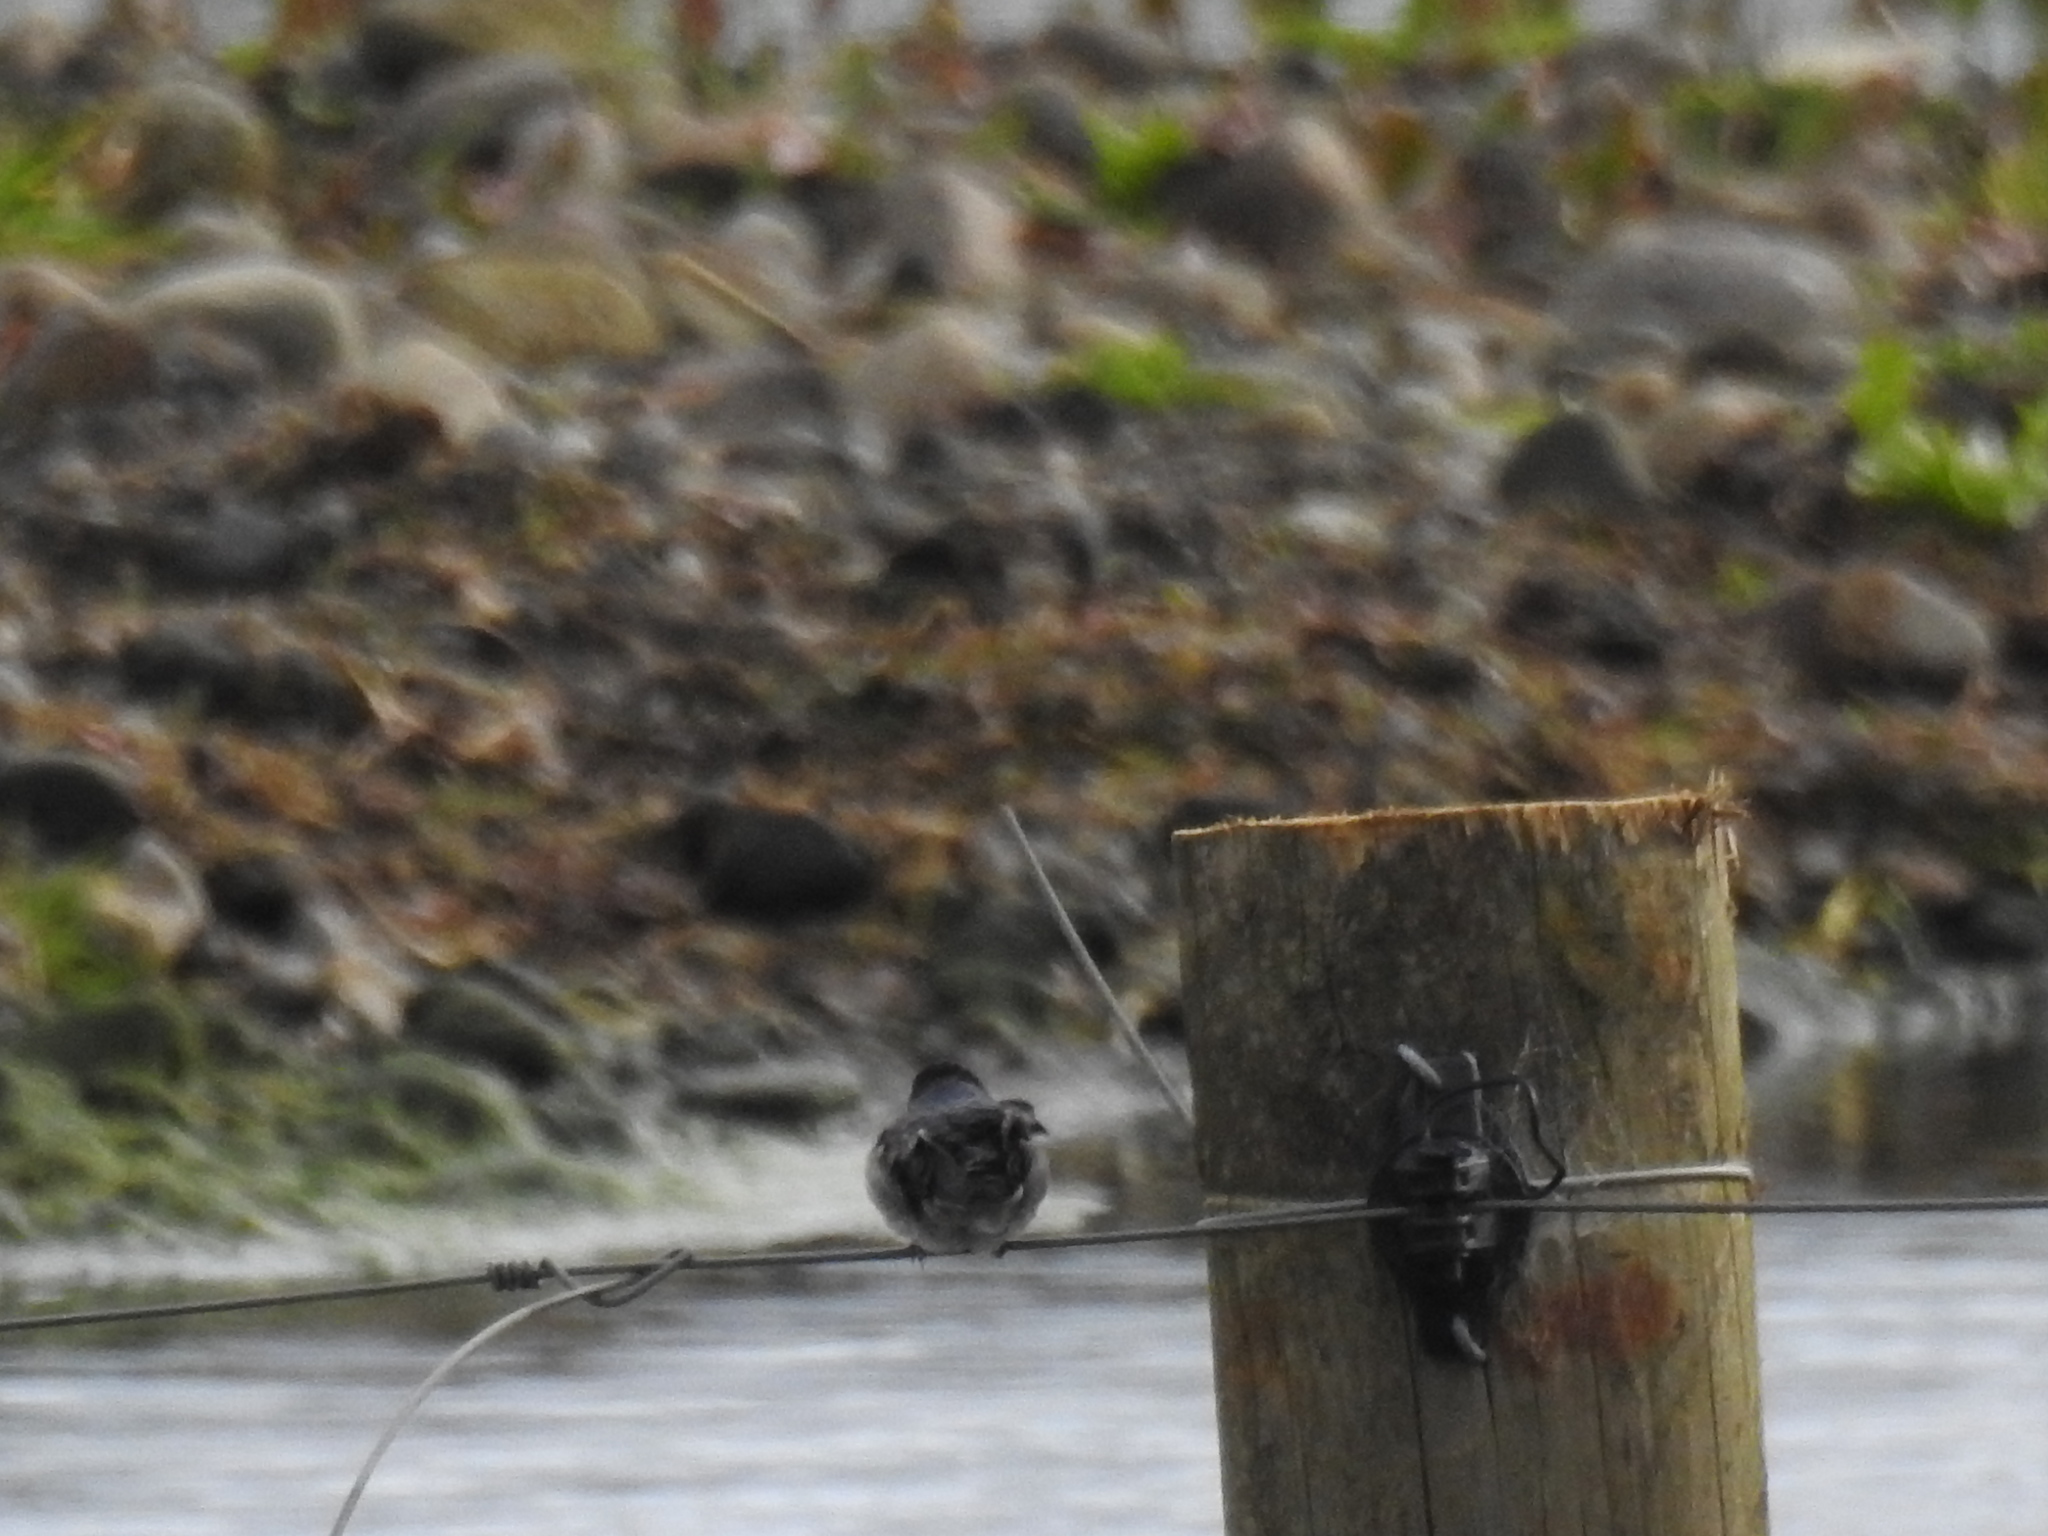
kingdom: Animalia
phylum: Chordata
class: Aves
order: Passeriformes
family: Hirundinidae
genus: Hirundo
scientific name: Hirundo neoxena
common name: Welcome swallow
